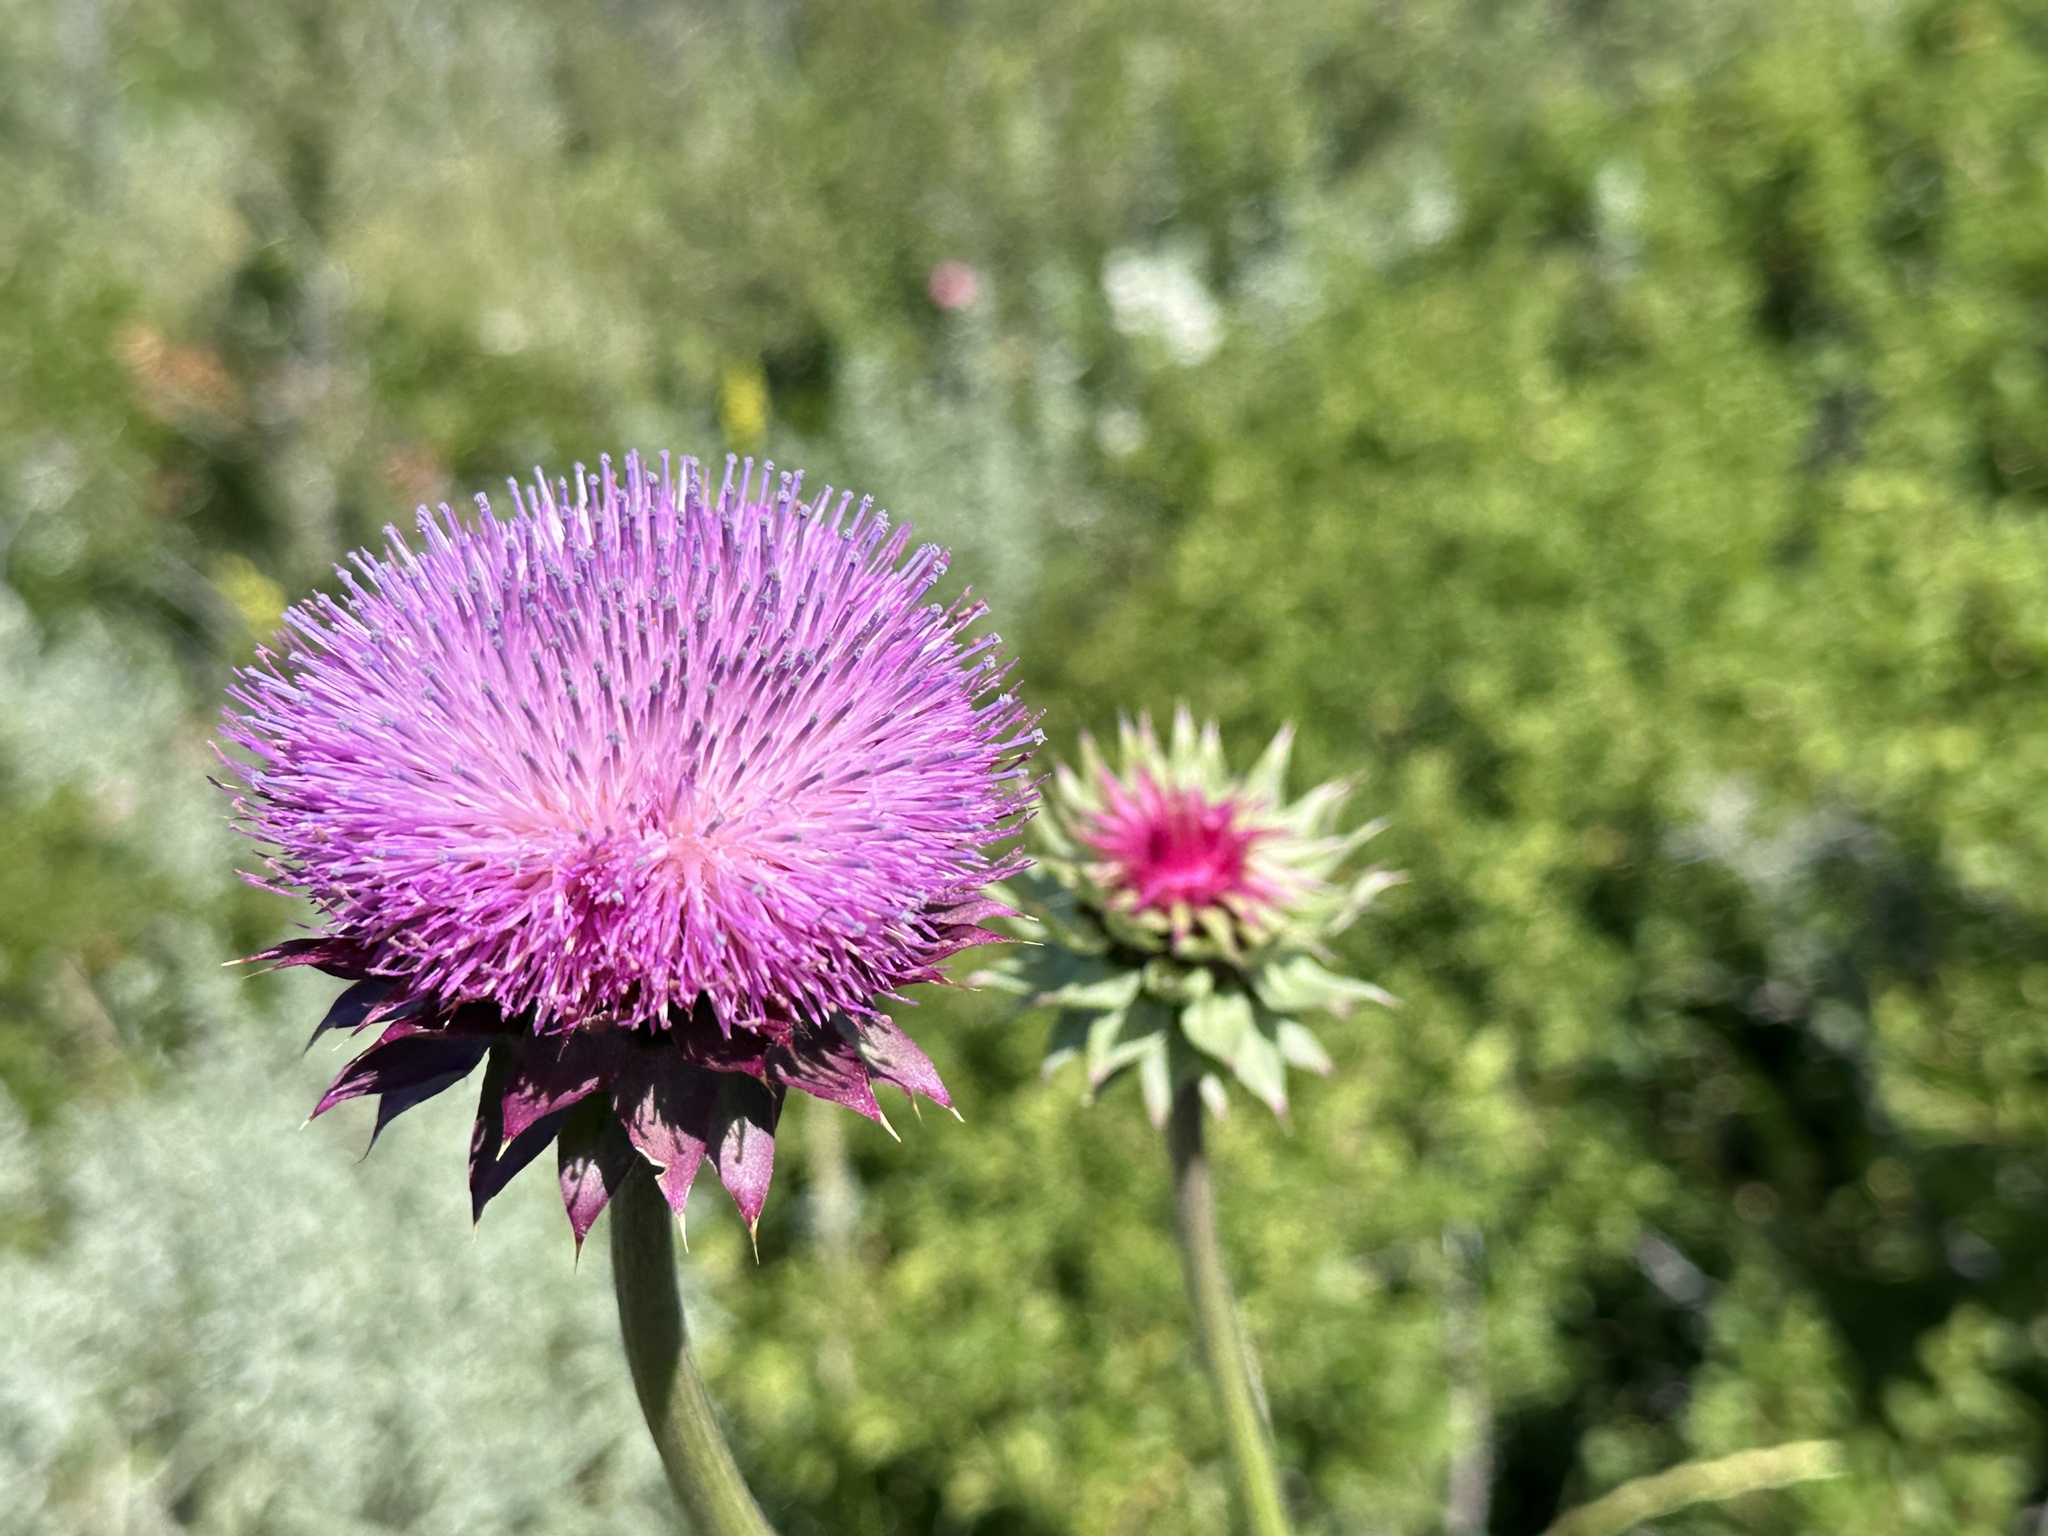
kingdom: Plantae
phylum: Tracheophyta
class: Magnoliopsida
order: Asterales
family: Asteraceae
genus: Carduus
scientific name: Carduus nutans
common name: Musk thistle
